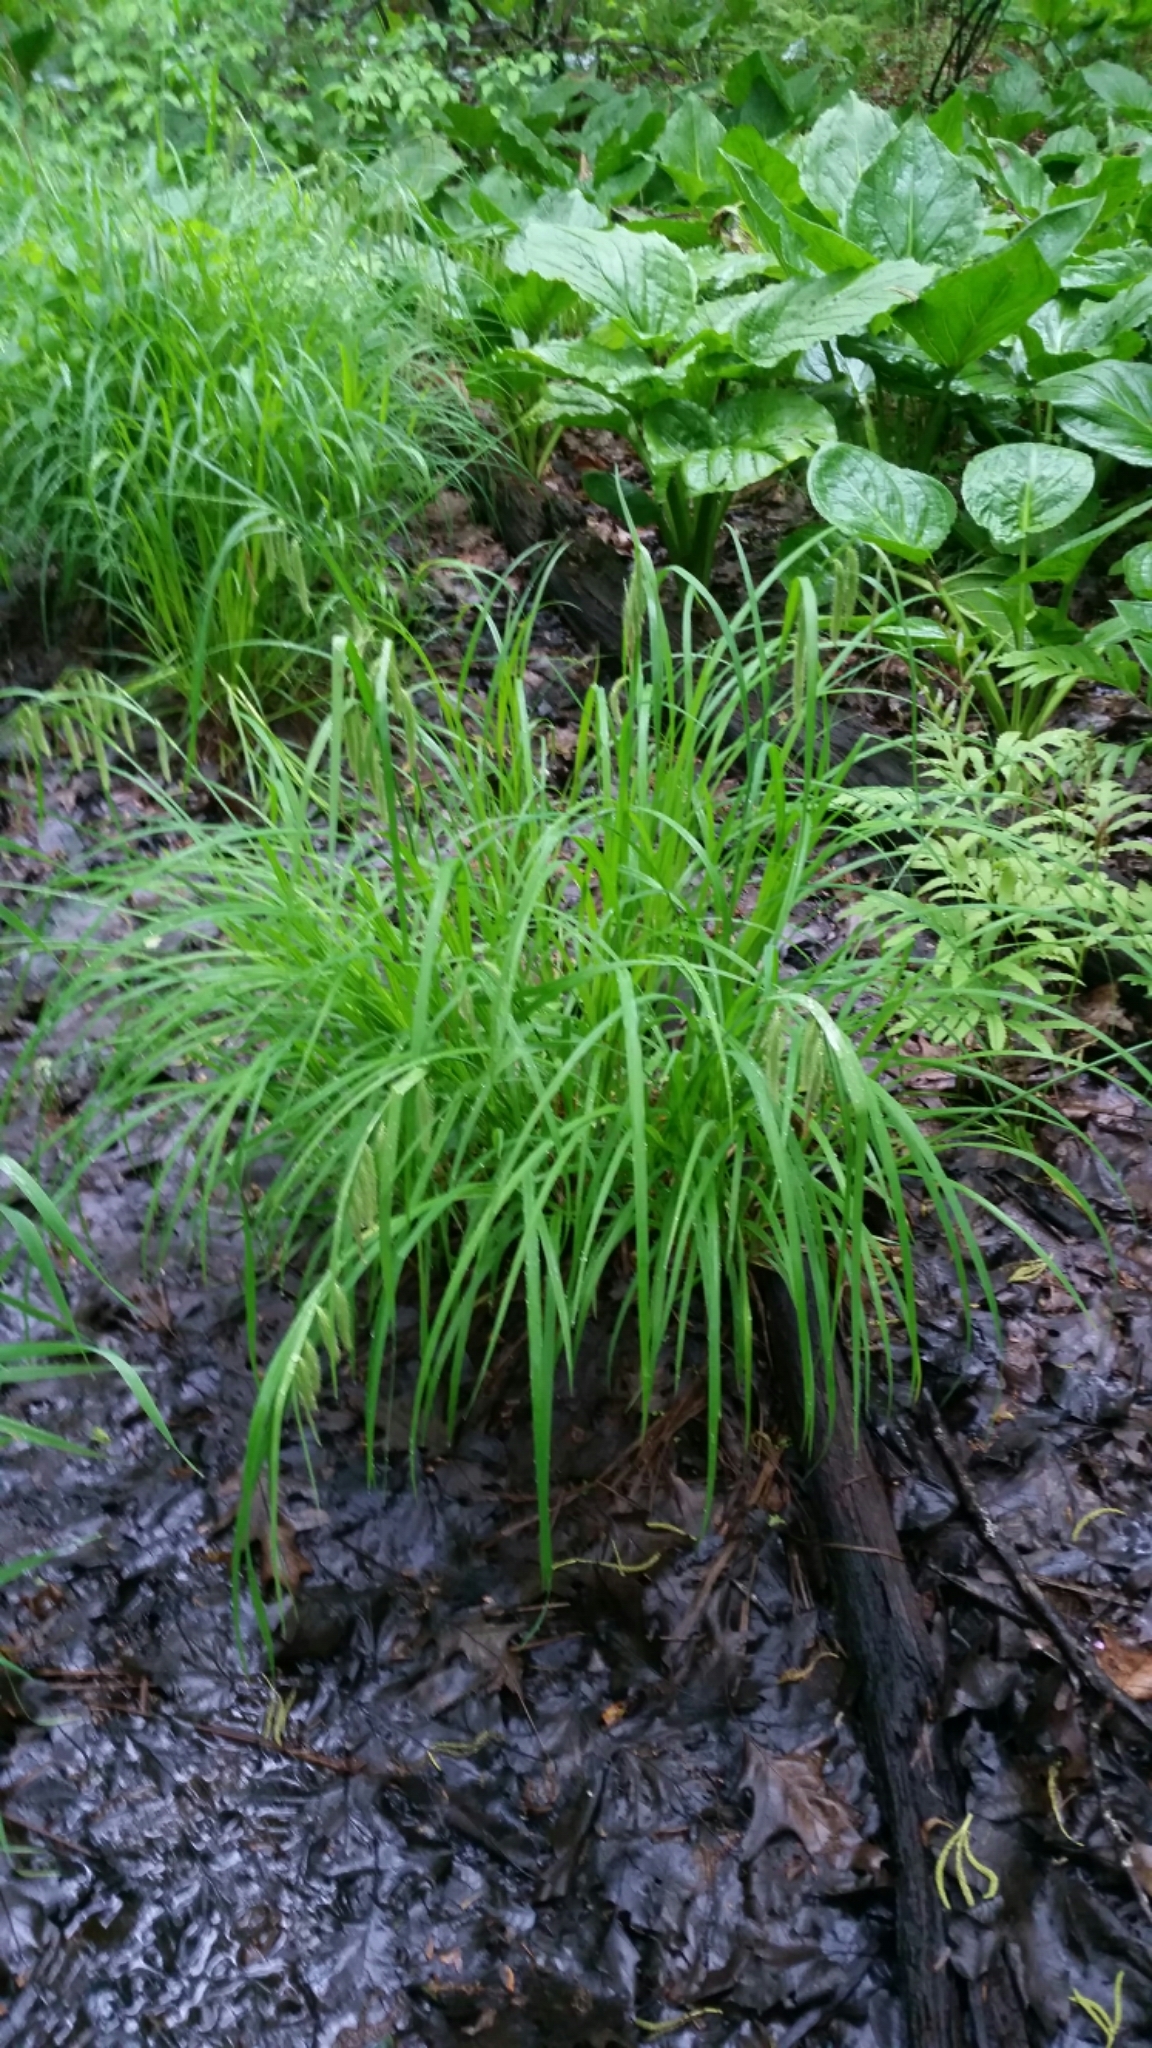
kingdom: Plantae
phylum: Tracheophyta
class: Liliopsida
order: Poales
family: Cyperaceae
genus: Carex
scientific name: Carex crinita
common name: Fringed sedge
